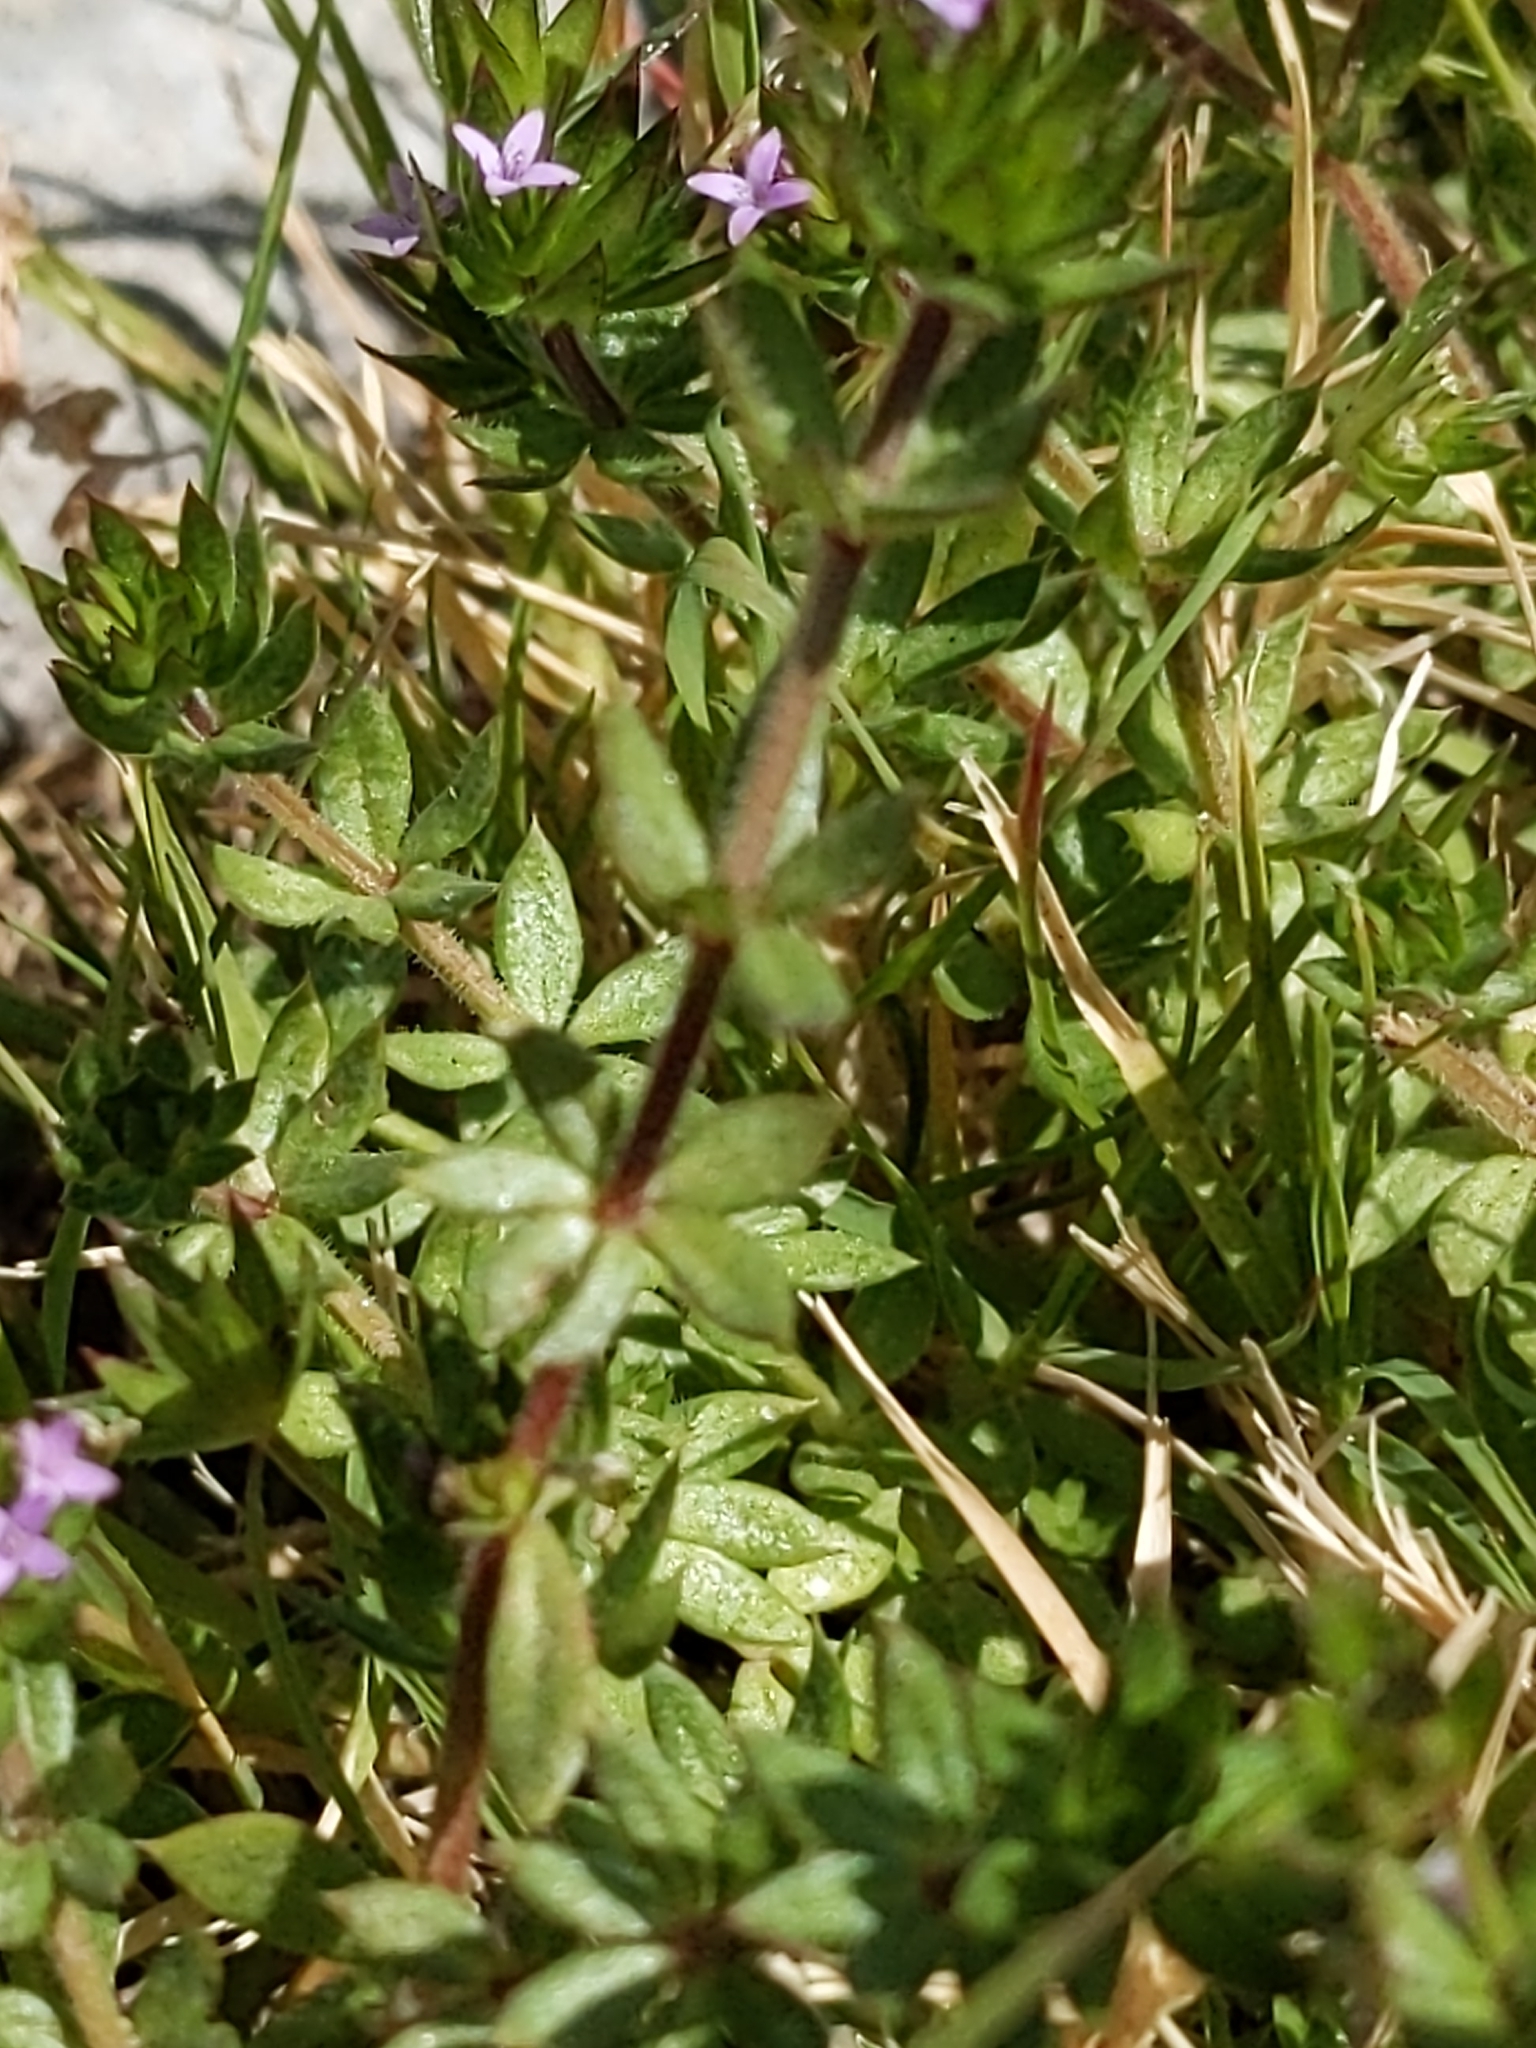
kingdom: Plantae
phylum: Tracheophyta
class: Magnoliopsida
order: Gentianales
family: Rubiaceae
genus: Sherardia
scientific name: Sherardia arvensis
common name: Field madder
